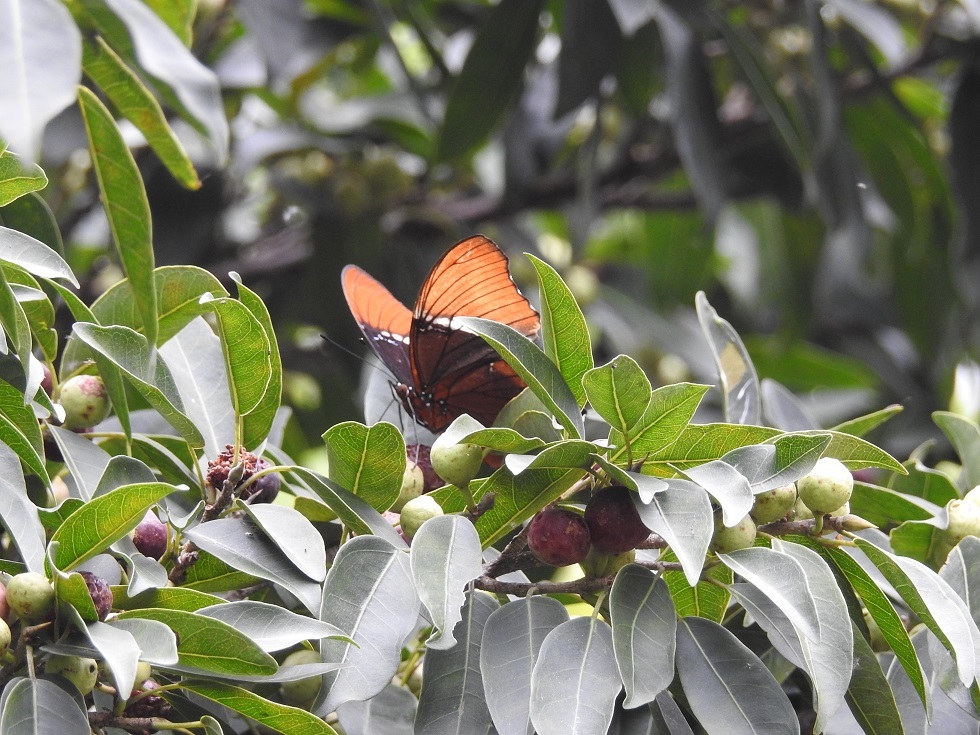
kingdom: Animalia
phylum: Arthropoda
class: Insecta
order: Lepidoptera
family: Nymphalidae
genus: Siproeta
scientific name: Siproeta epaphus
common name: Rusty-tipped page
